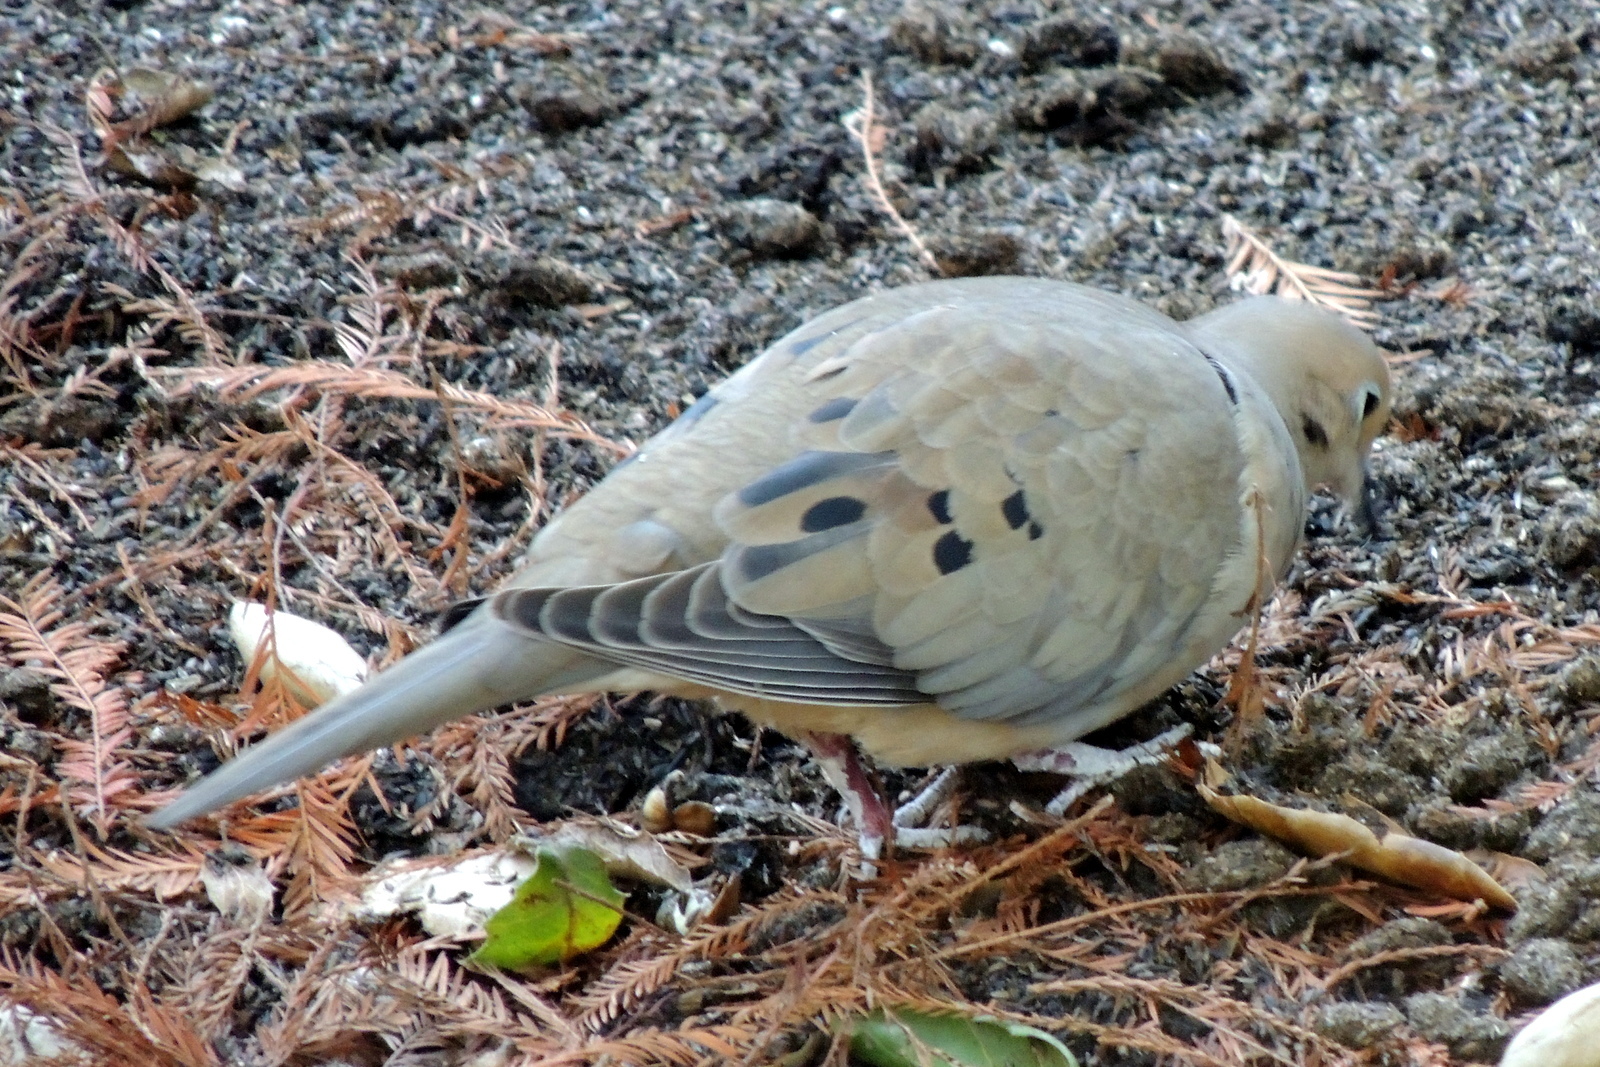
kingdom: Animalia
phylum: Chordata
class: Aves
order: Columbiformes
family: Columbidae
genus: Zenaida
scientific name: Zenaida macroura
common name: Mourning dove
